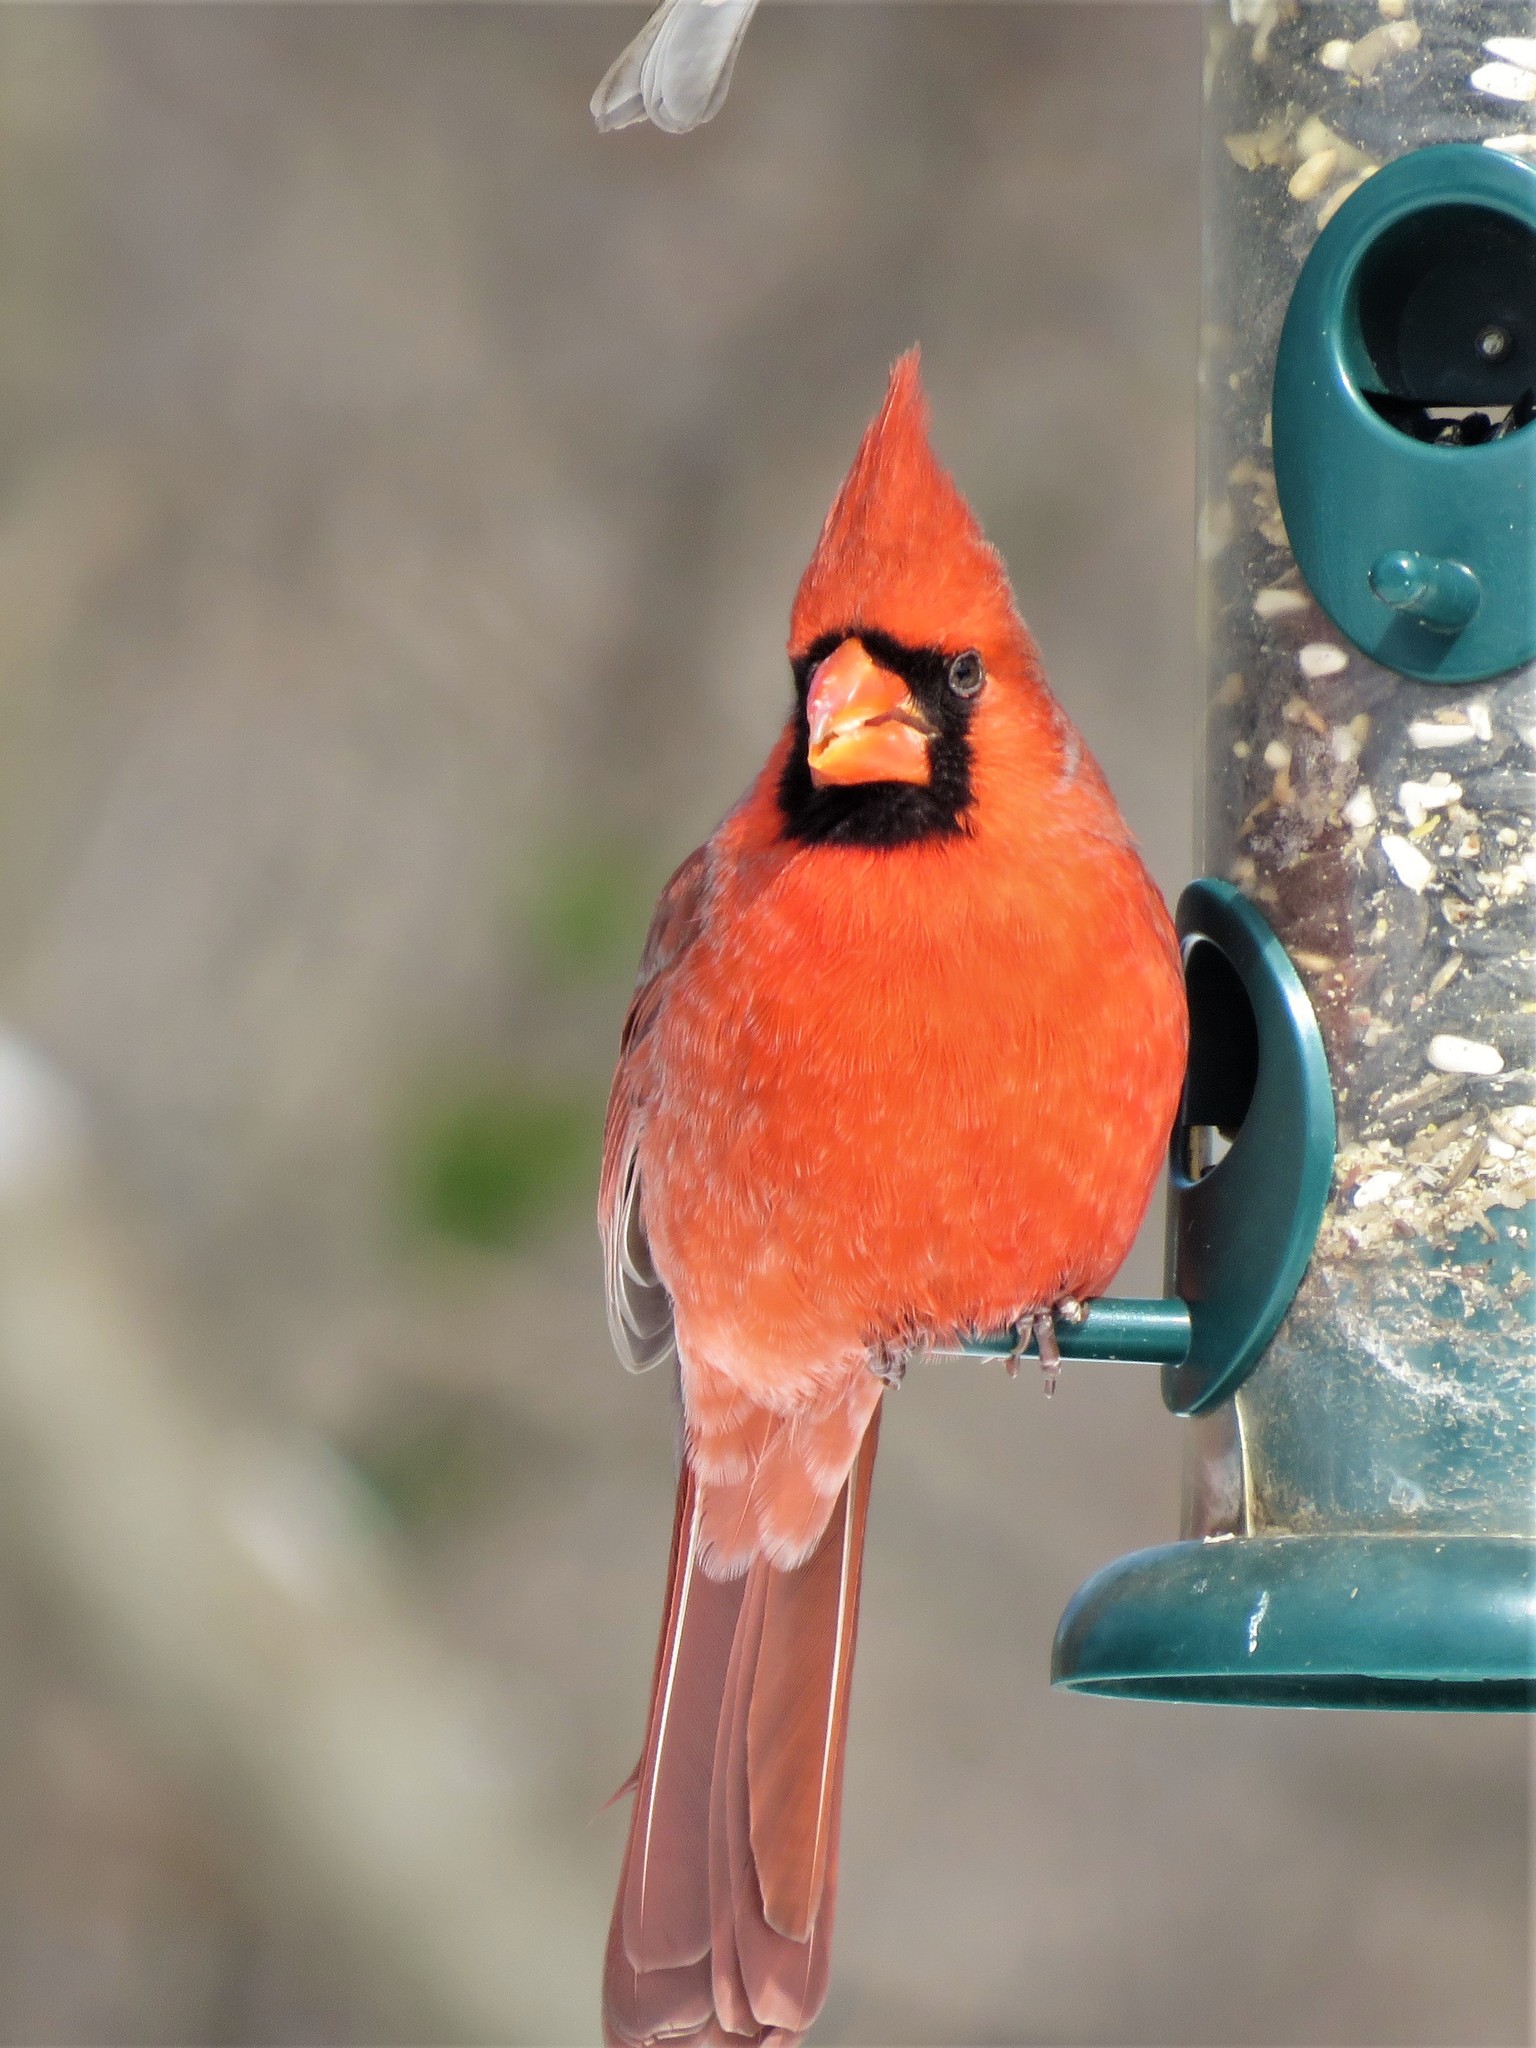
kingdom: Animalia
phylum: Chordata
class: Aves
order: Passeriformes
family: Cardinalidae
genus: Cardinalis
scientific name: Cardinalis cardinalis
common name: Northern cardinal
